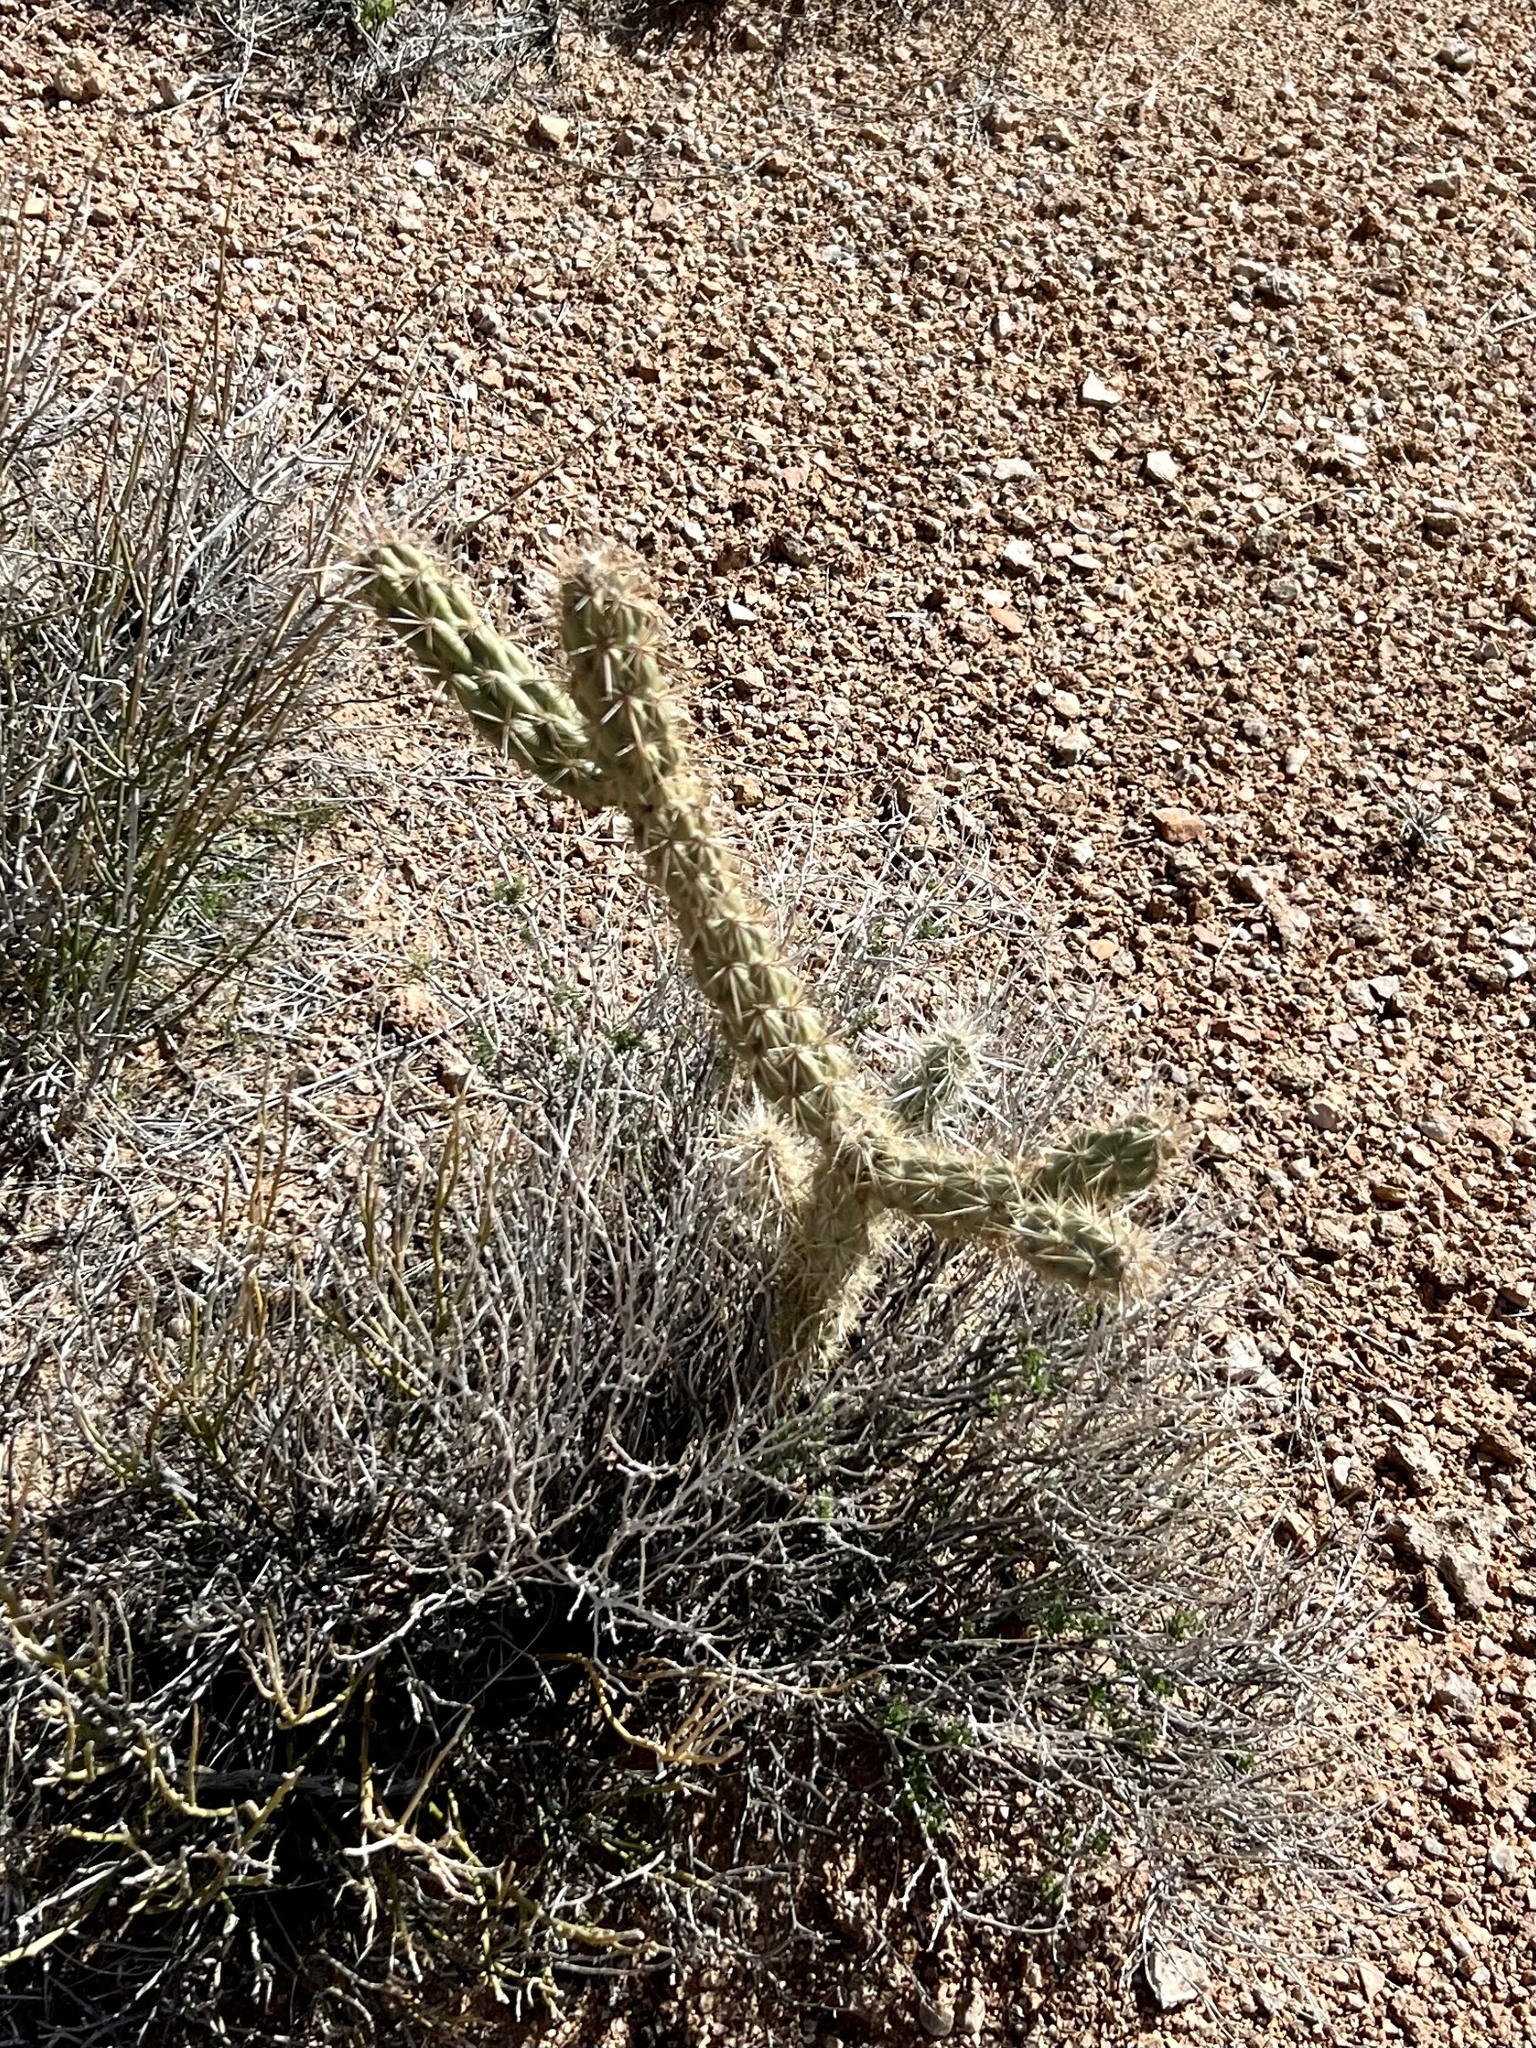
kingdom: Plantae
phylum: Tracheophyta
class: Magnoliopsida
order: Caryophyllales
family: Cactaceae
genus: Cylindropuntia
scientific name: Cylindropuntia acanthocarpa
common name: Buckhorn cholla
